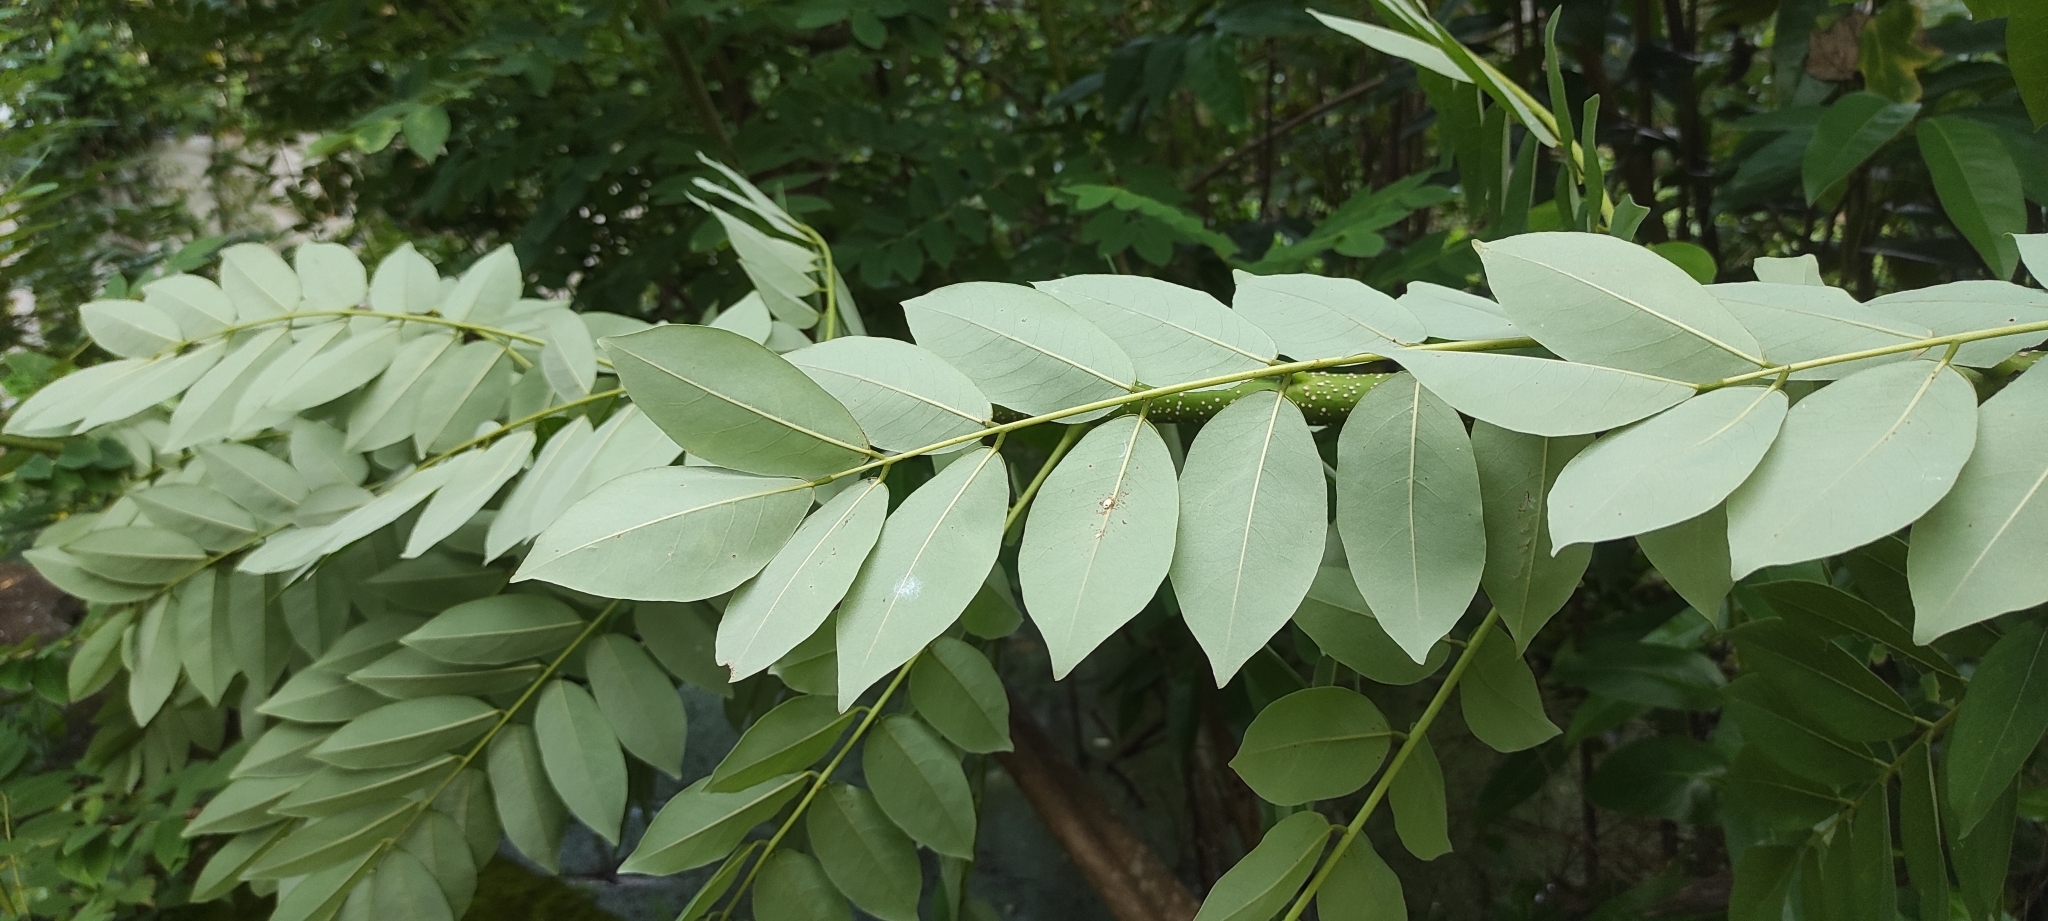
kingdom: Plantae
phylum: Tracheophyta
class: Magnoliopsida
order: Fabales
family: Fabaceae
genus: Gliricidia
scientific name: Gliricidia sepium
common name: Quickstick
